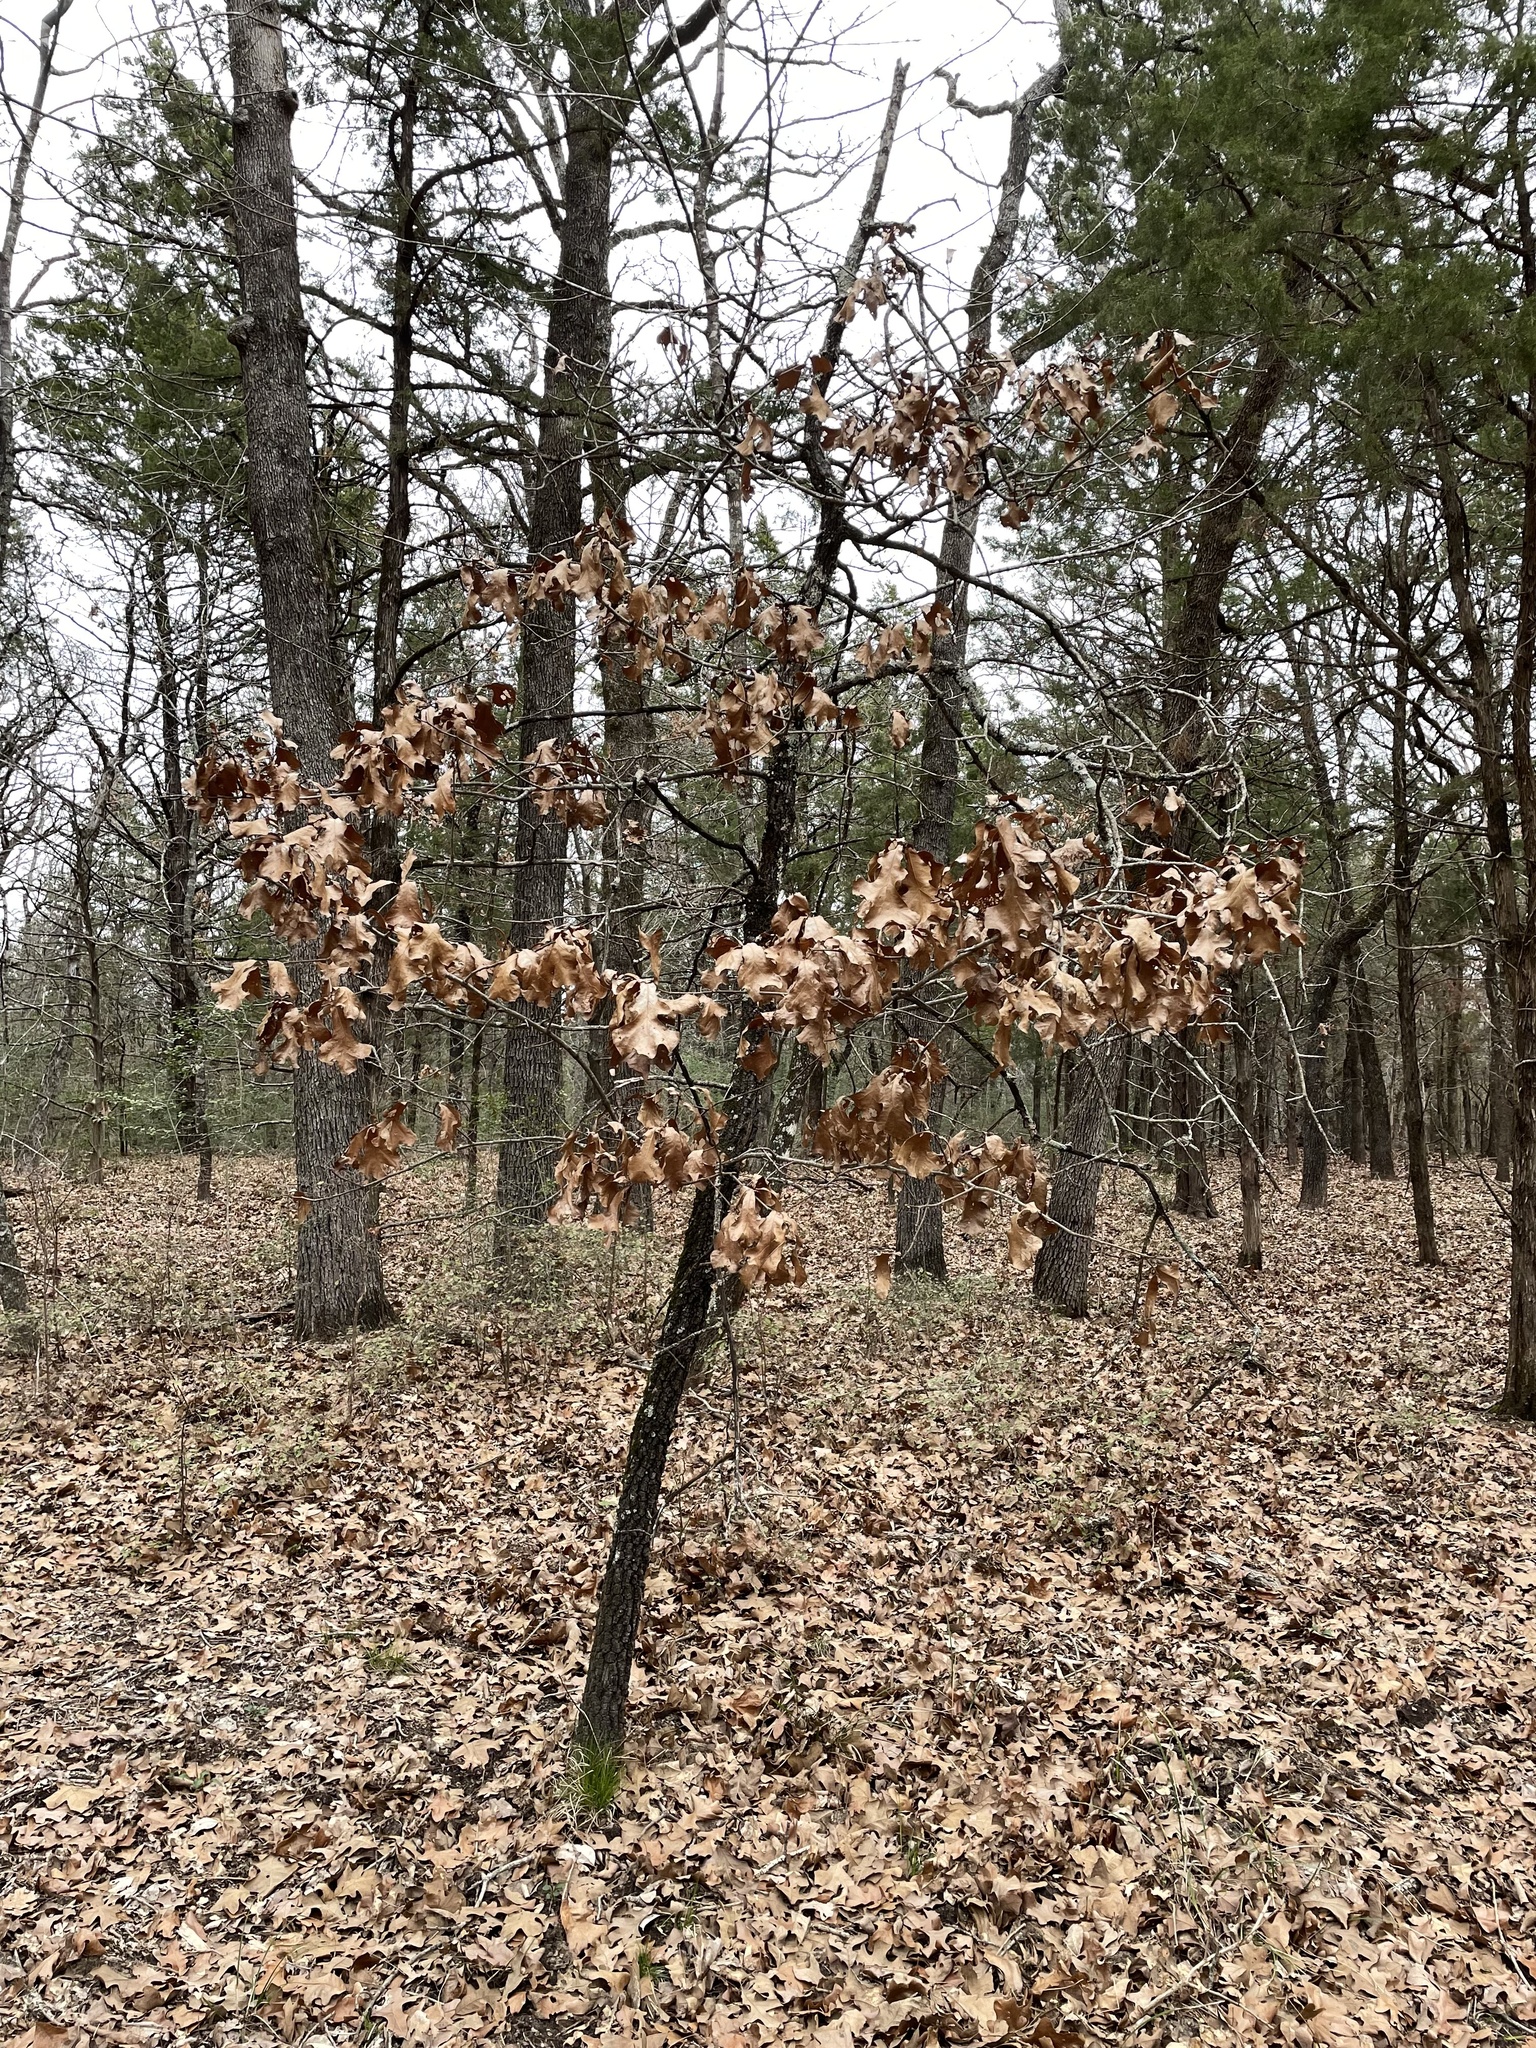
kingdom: Plantae
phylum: Tracheophyta
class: Magnoliopsida
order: Fagales
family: Fagaceae
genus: Quercus
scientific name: Quercus marilandica
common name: Blackjack oak
